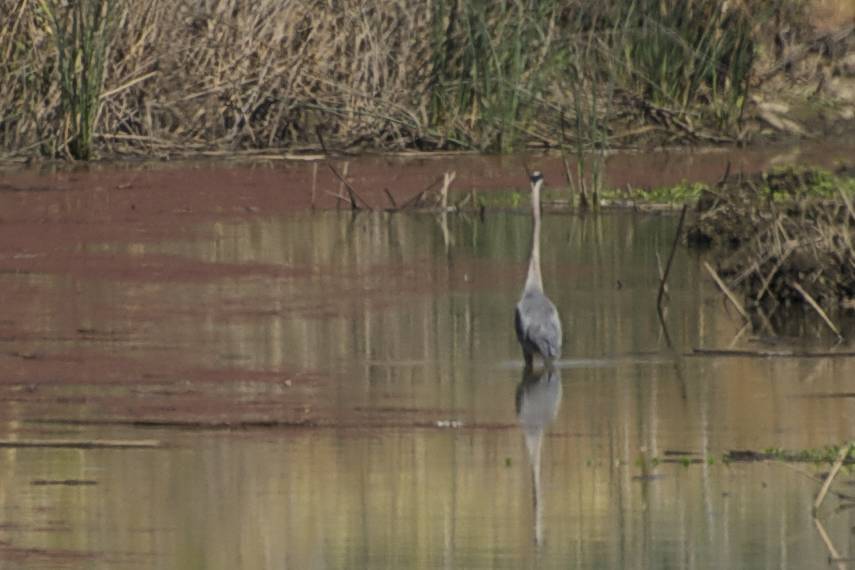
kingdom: Animalia
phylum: Chordata
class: Aves
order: Pelecaniformes
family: Ardeidae
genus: Ardea
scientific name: Ardea herodias
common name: Great blue heron
